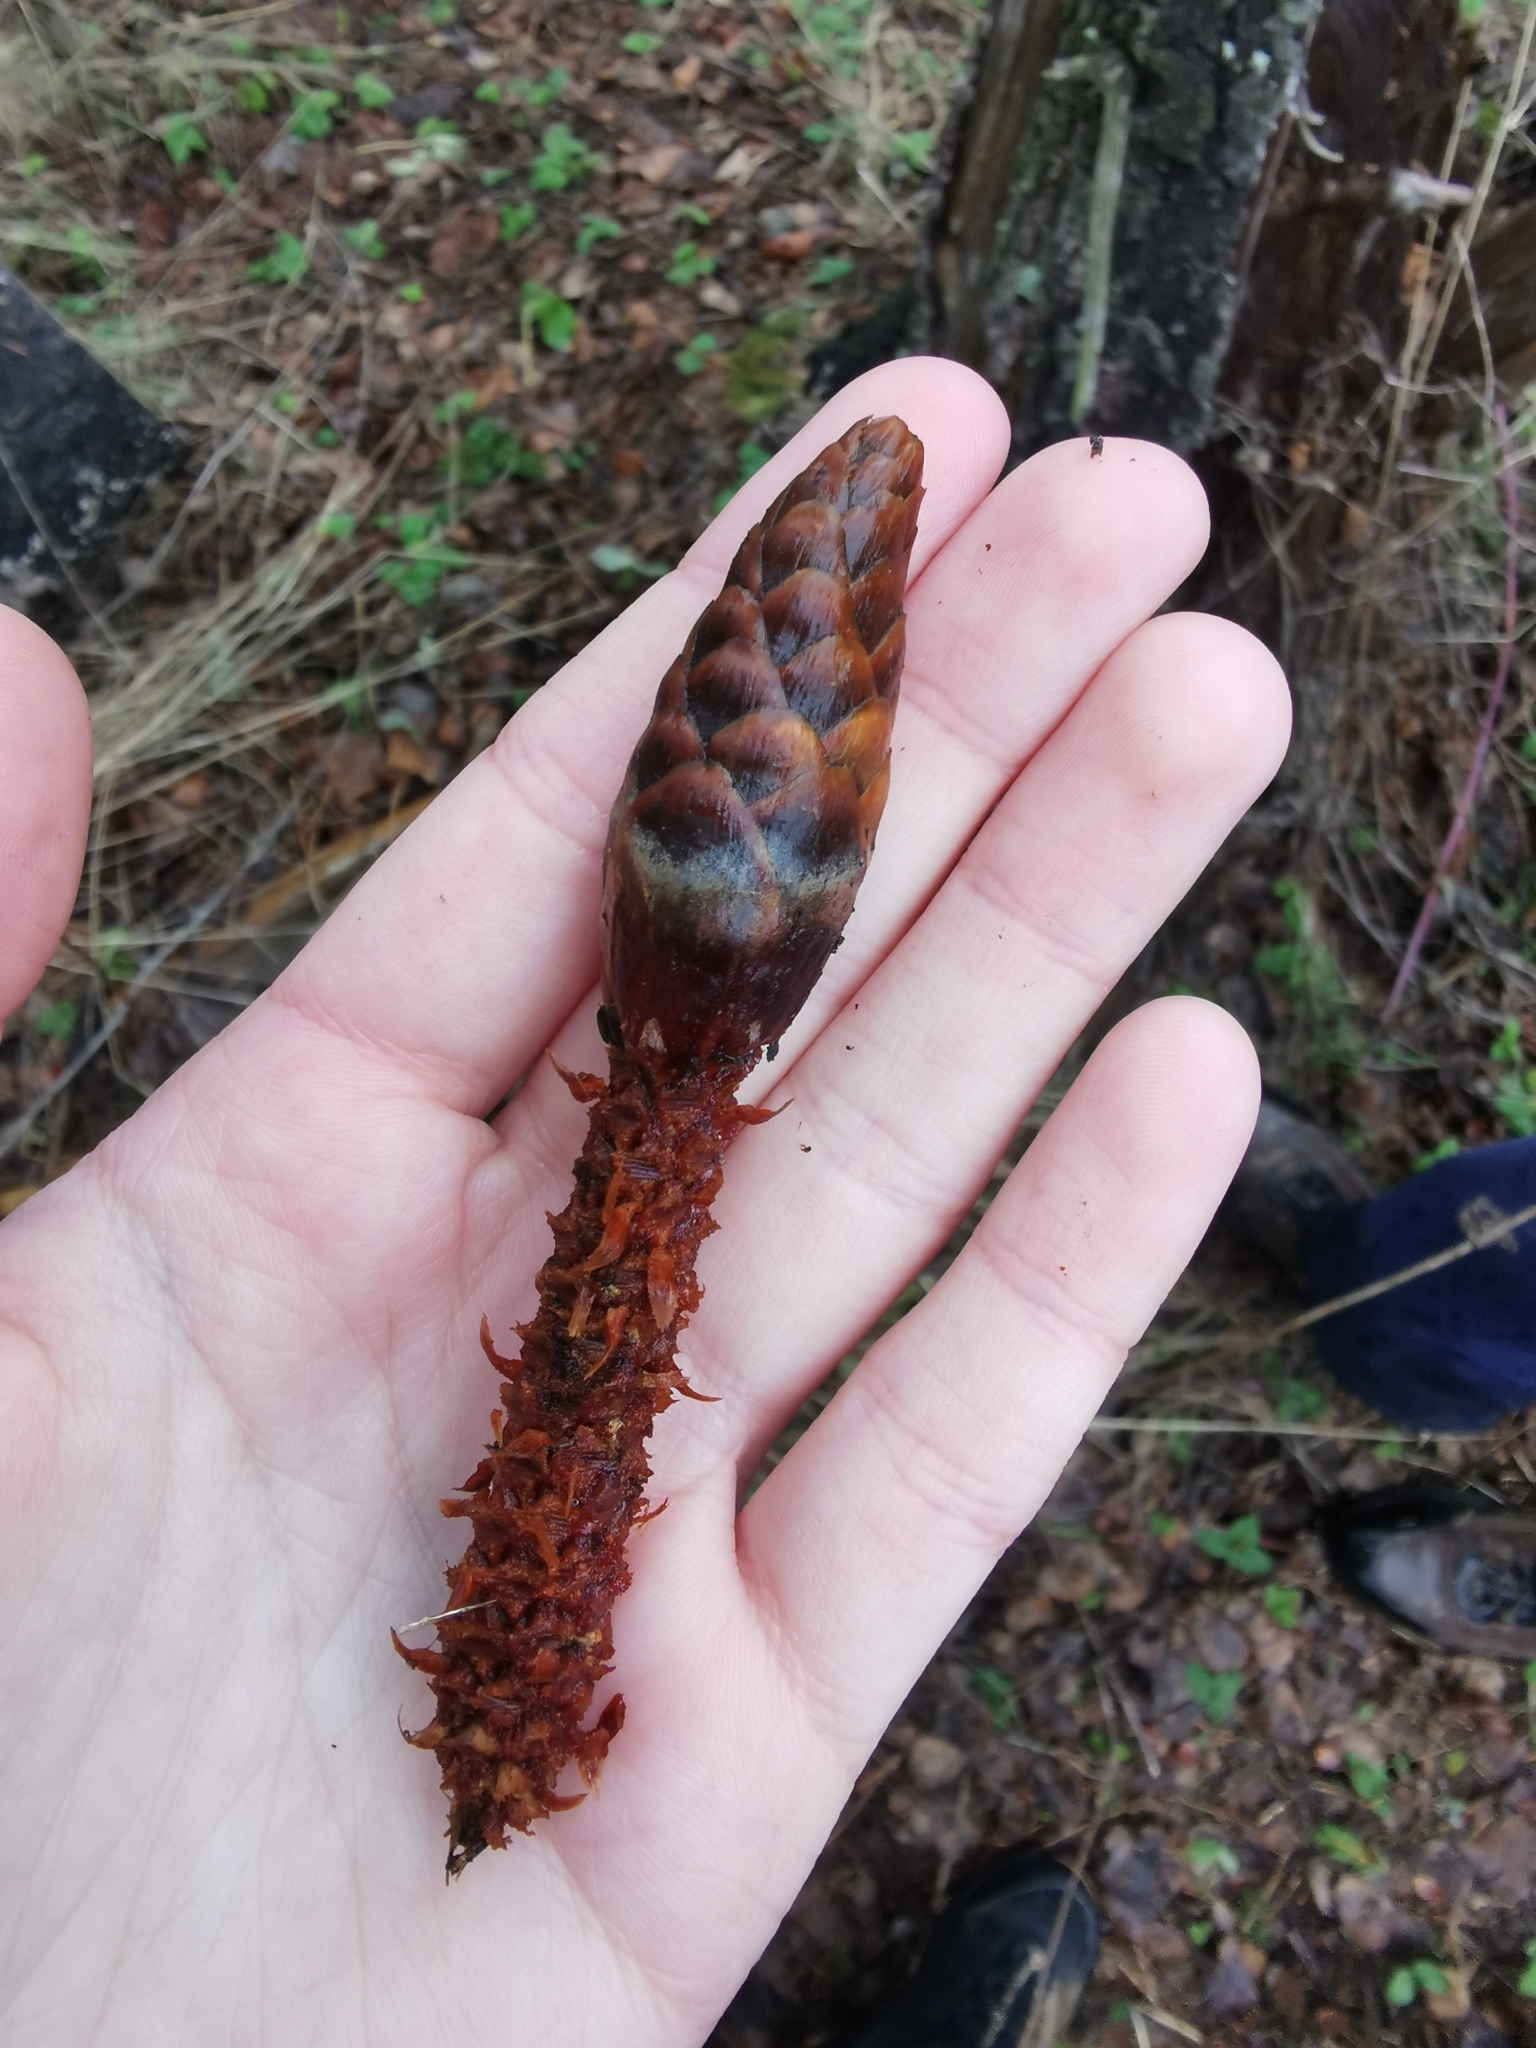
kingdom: Animalia
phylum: Chordata
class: Mammalia
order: Rodentia
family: Sciuridae
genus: Sciurus
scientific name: Sciurus vulgaris
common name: Eurasian red squirrel
